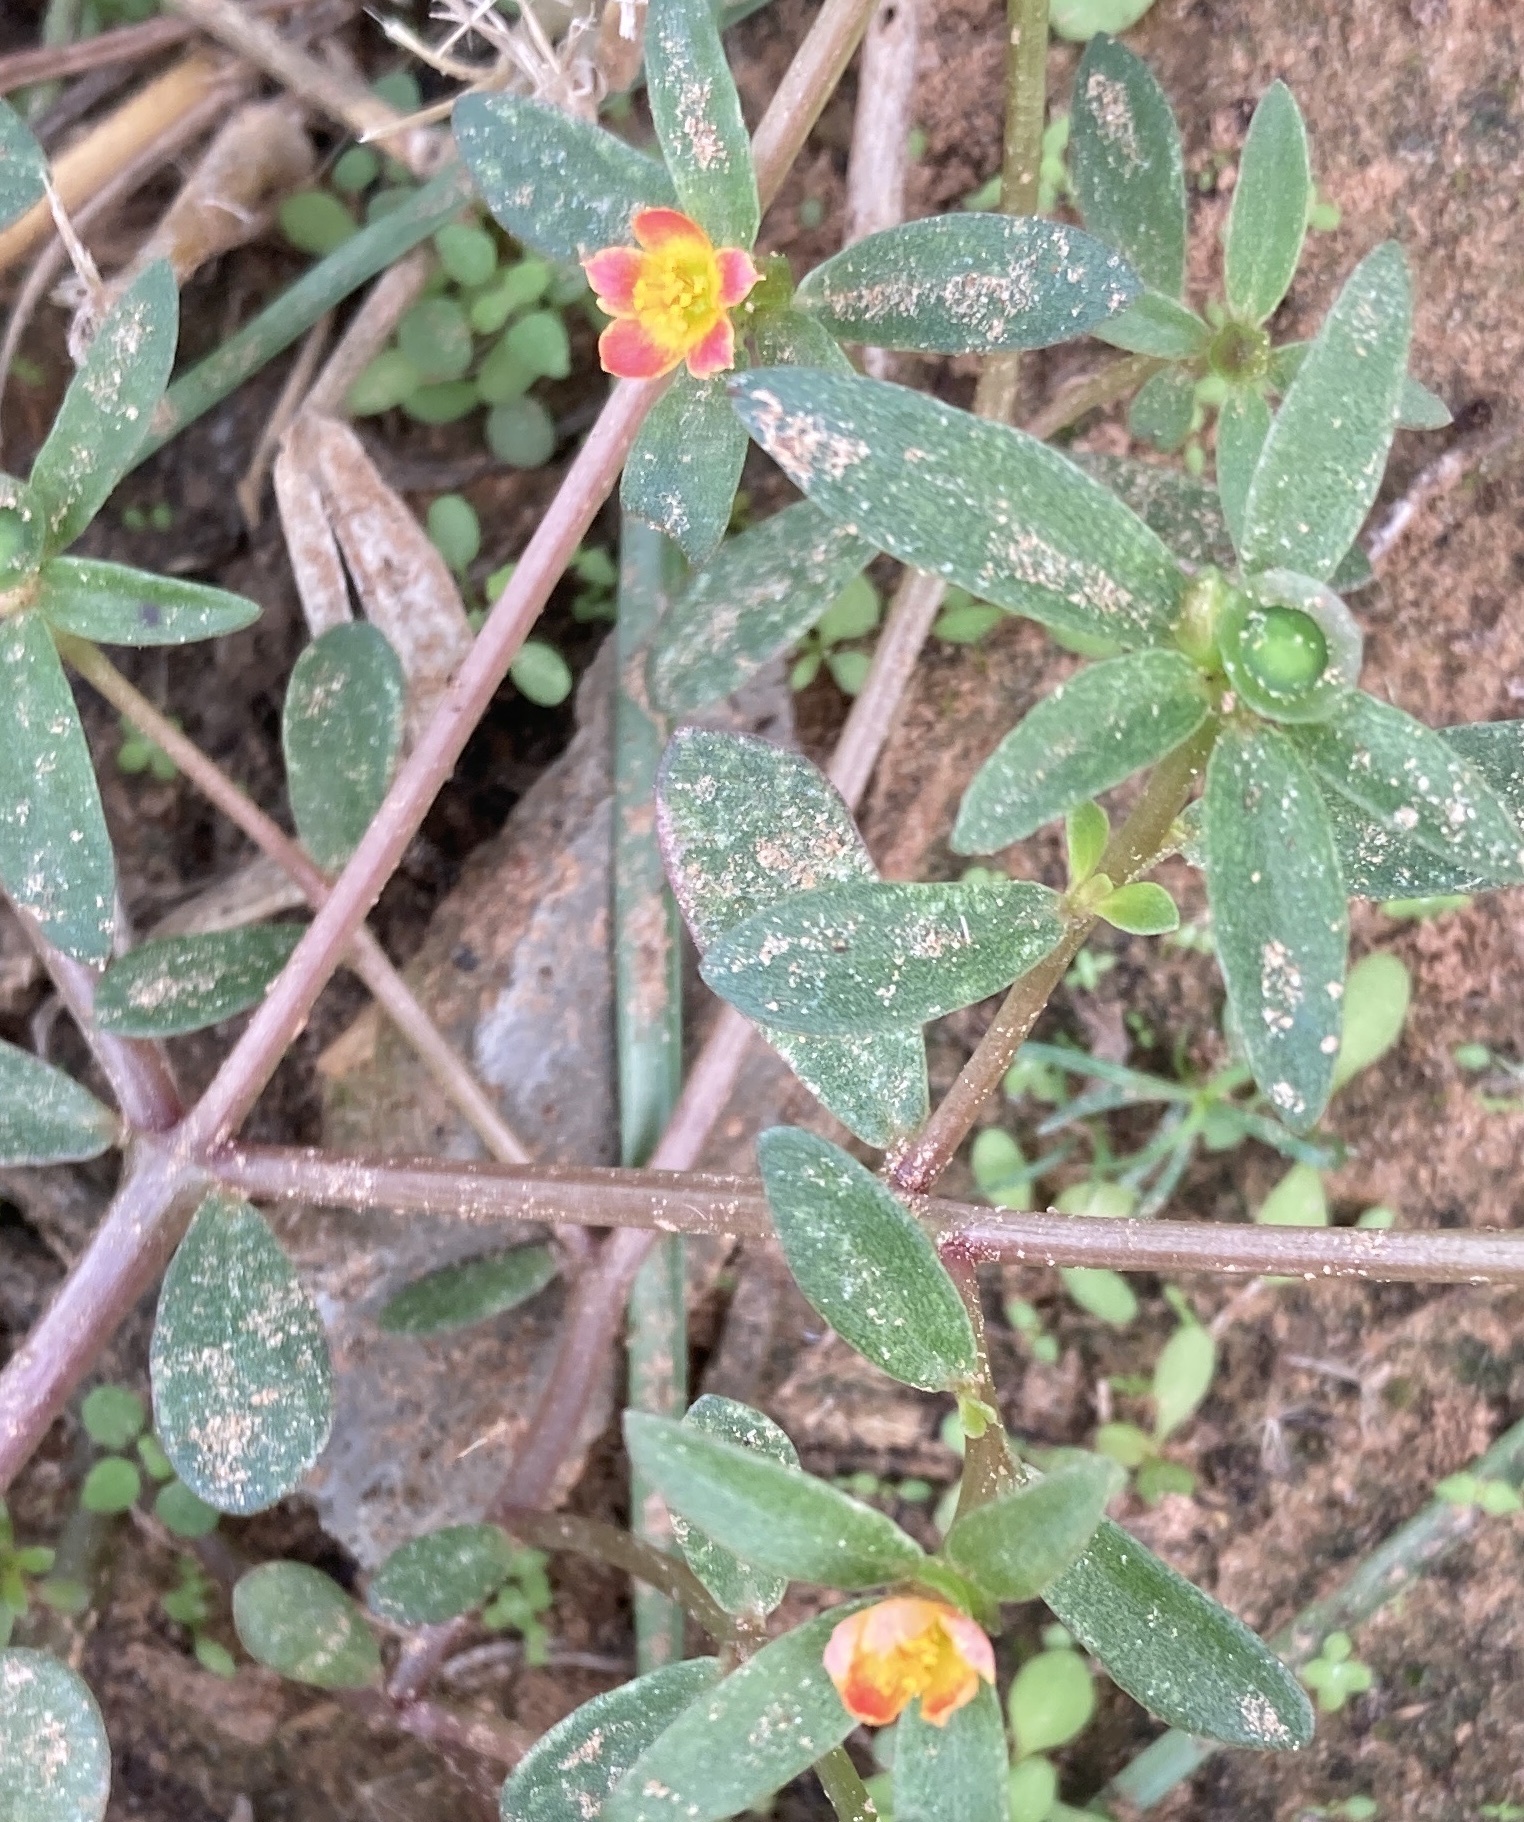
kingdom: Plantae
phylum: Tracheophyta
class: Magnoliopsida
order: Caryophyllales
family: Portulacaceae
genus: Portulaca
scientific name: Portulaca umbraticola
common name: Wingpod purslane
